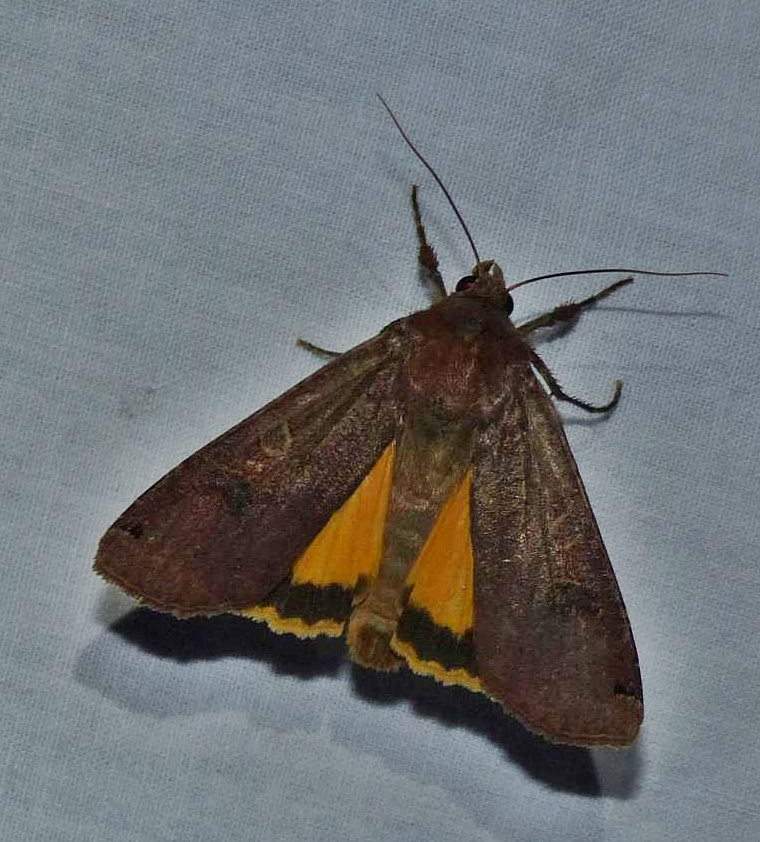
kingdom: Animalia
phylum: Arthropoda
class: Insecta
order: Lepidoptera
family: Noctuidae
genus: Noctua
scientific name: Noctua pronuba
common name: Large yellow underwing
